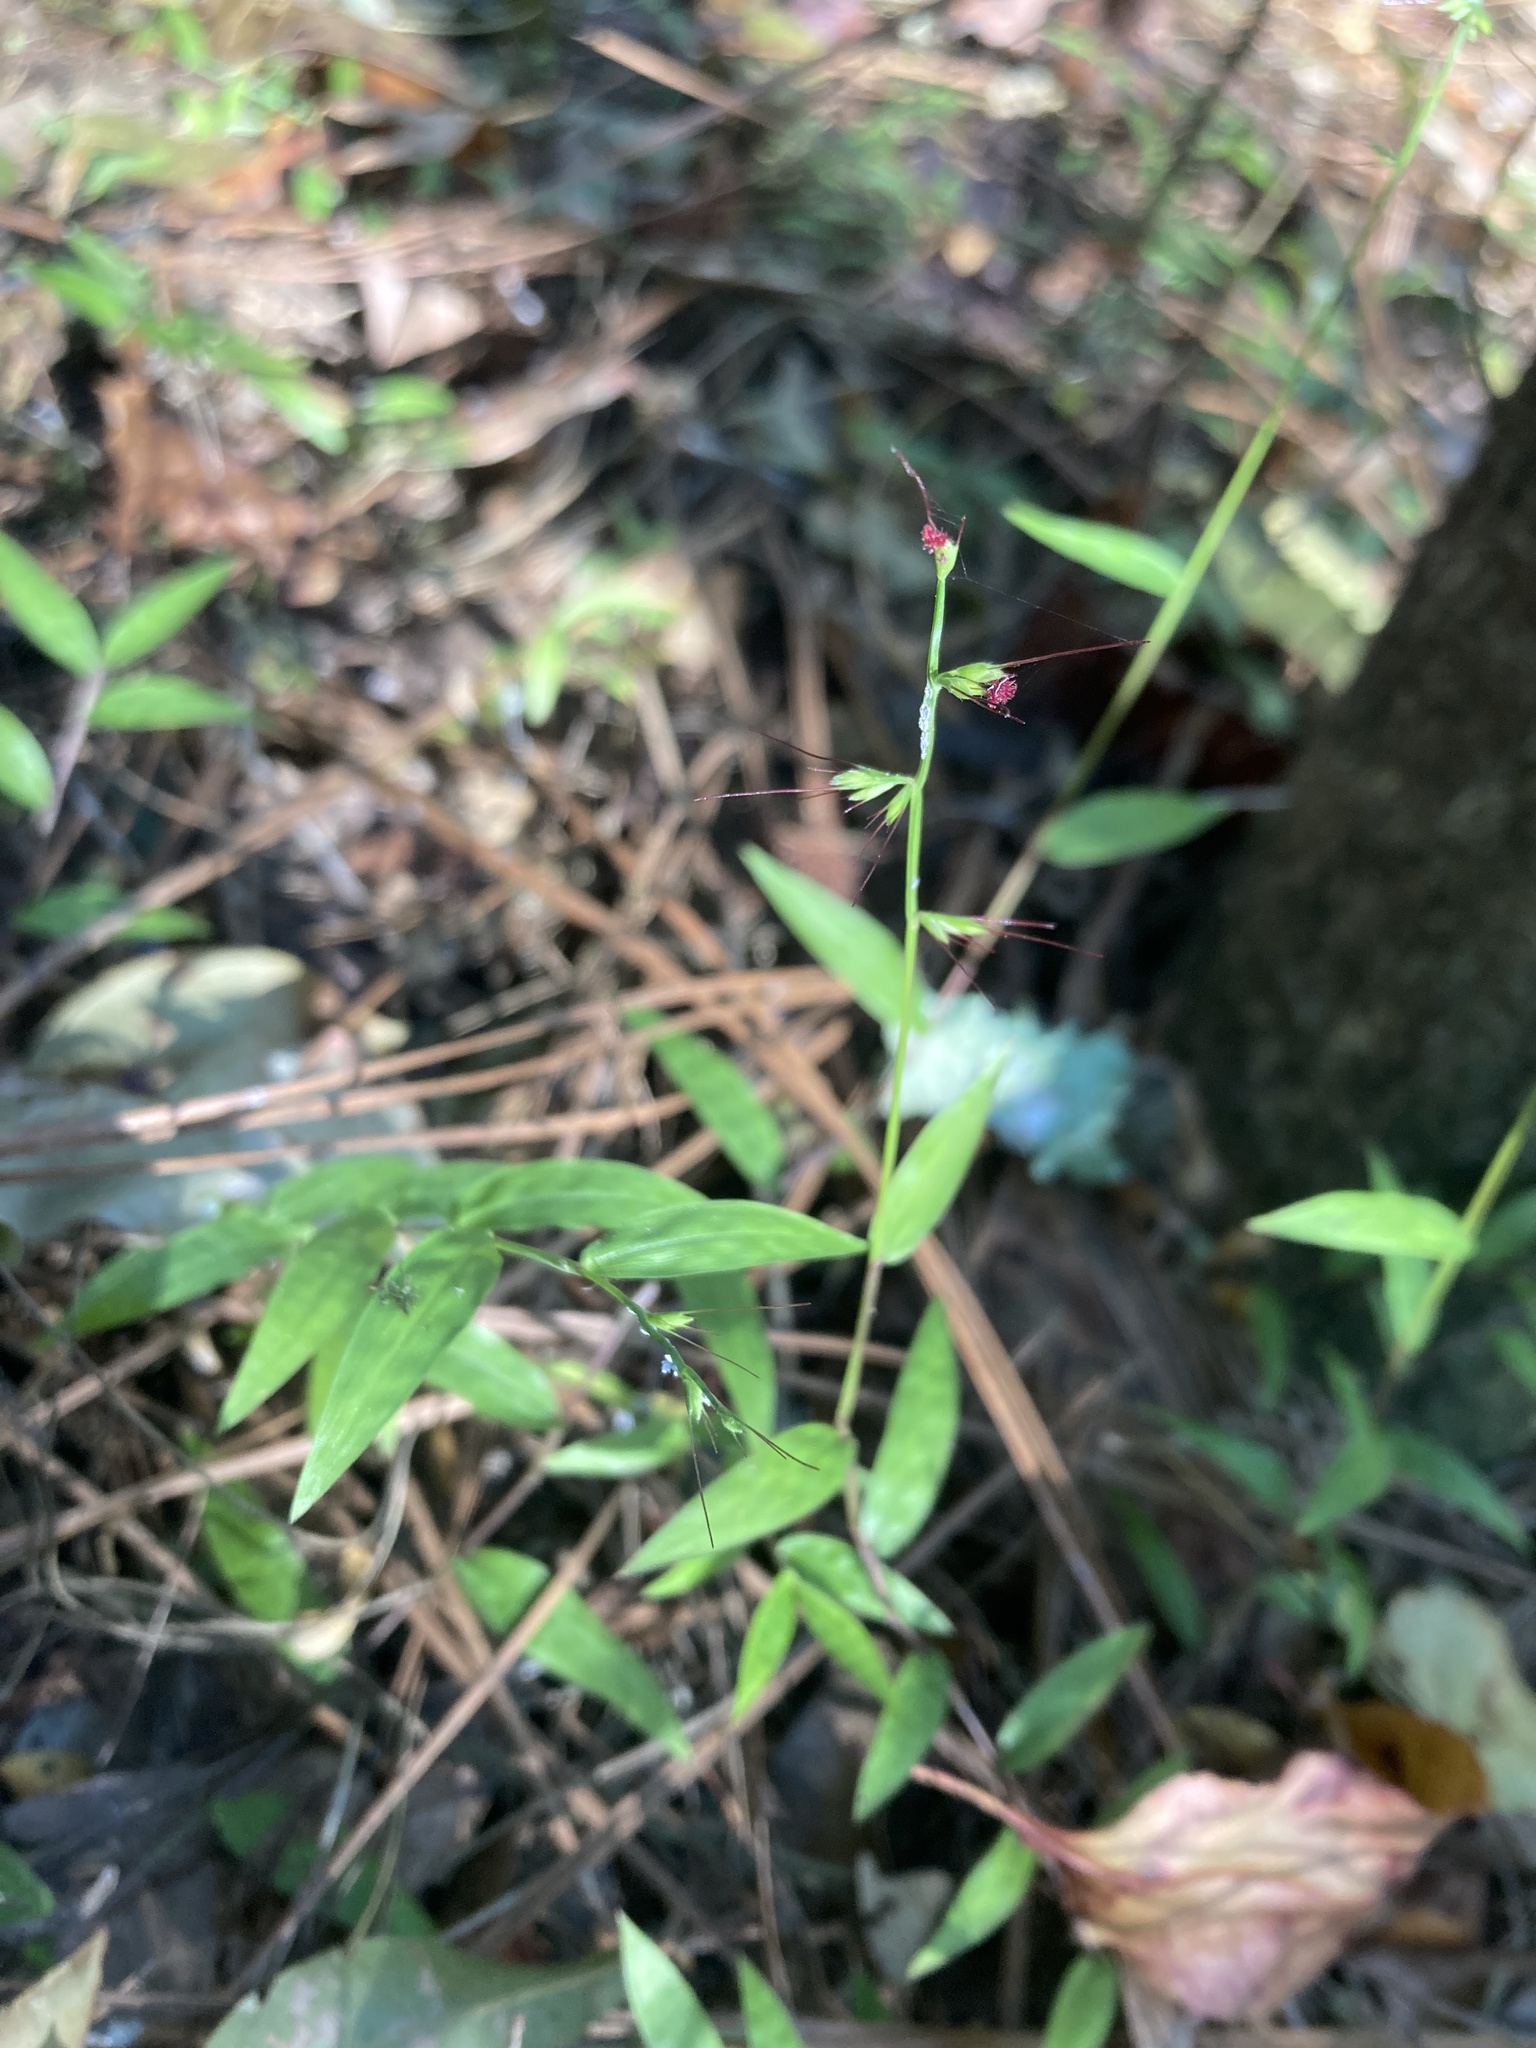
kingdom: Plantae
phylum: Tracheophyta
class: Liliopsida
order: Poales
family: Poaceae
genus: Oplismenus
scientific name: Oplismenus compositus
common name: Running mountain grass
